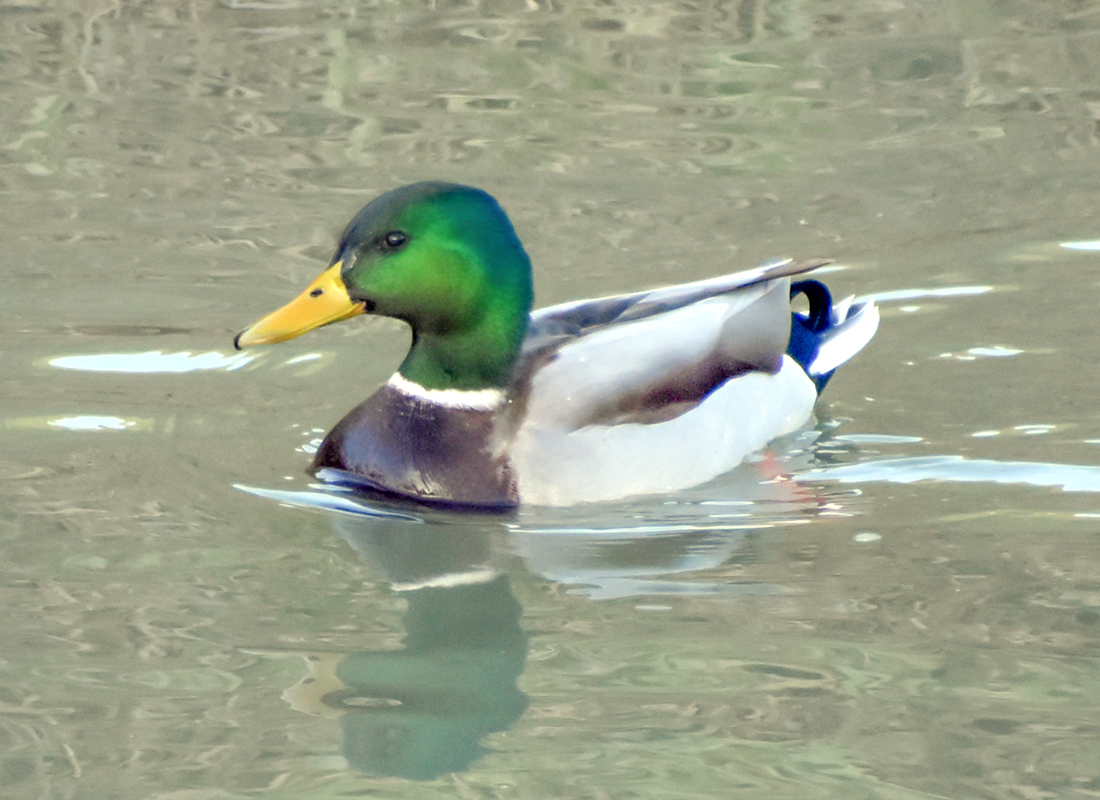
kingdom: Animalia
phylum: Chordata
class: Aves
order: Anseriformes
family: Anatidae
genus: Anas
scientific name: Anas platyrhynchos
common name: Mallard
